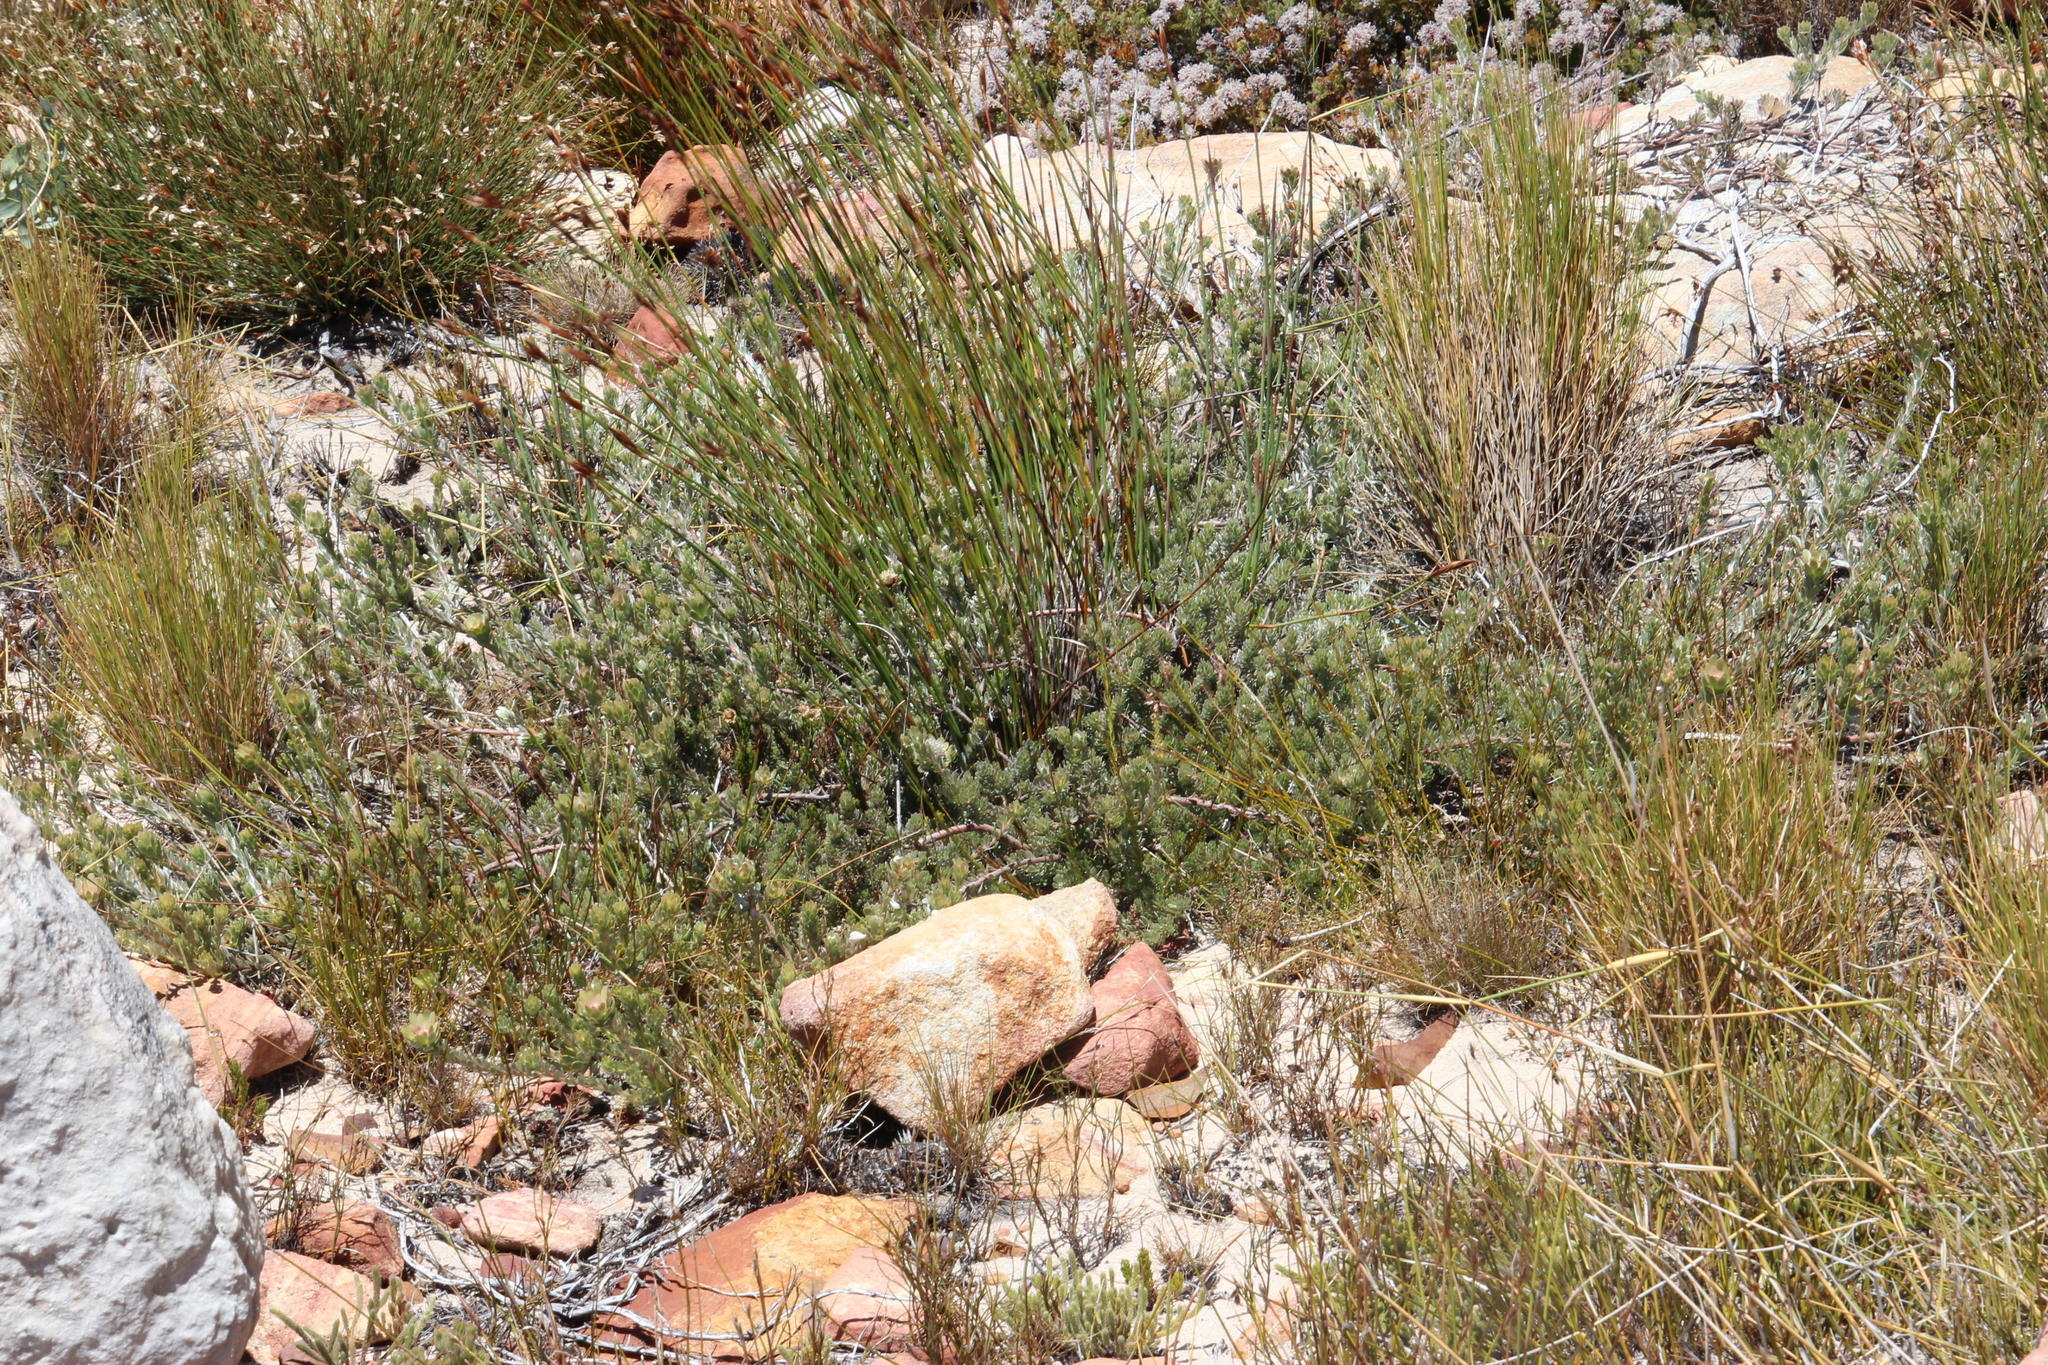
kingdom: Plantae
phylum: Tracheophyta
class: Magnoliopsida
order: Proteales
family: Proteaceae
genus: Leucadendron
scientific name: Leucadendron nitidum
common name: Bokkeveld conebush
